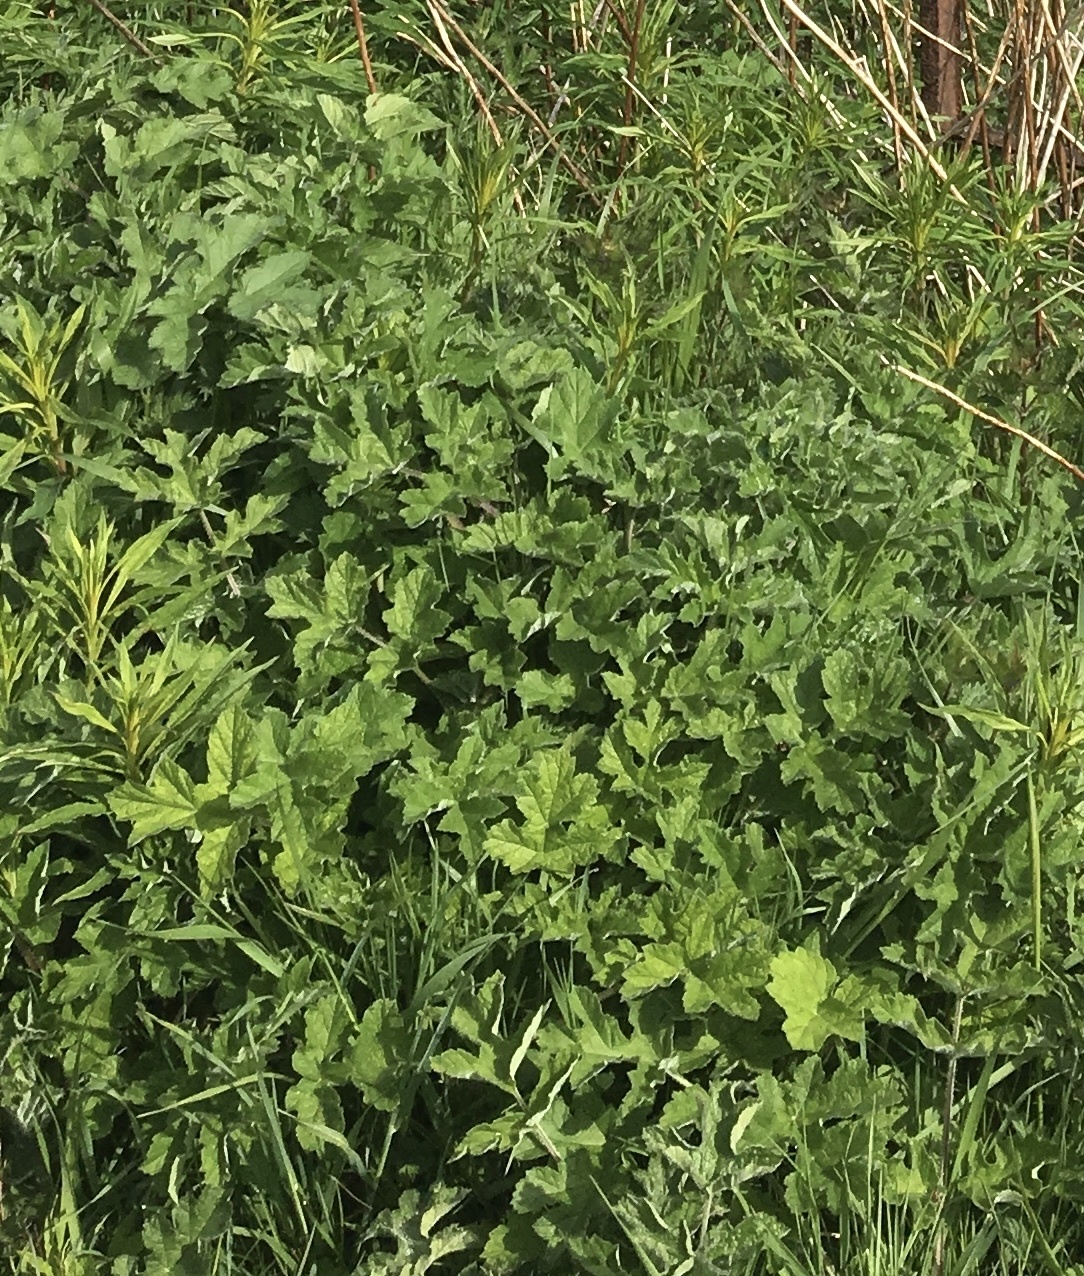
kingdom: Plantae
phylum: Tracheophyta
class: Magnoliopsida
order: Apiales
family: Apiaceae
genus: Heracleum
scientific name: Heracleum sphondylium
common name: Hogweed
